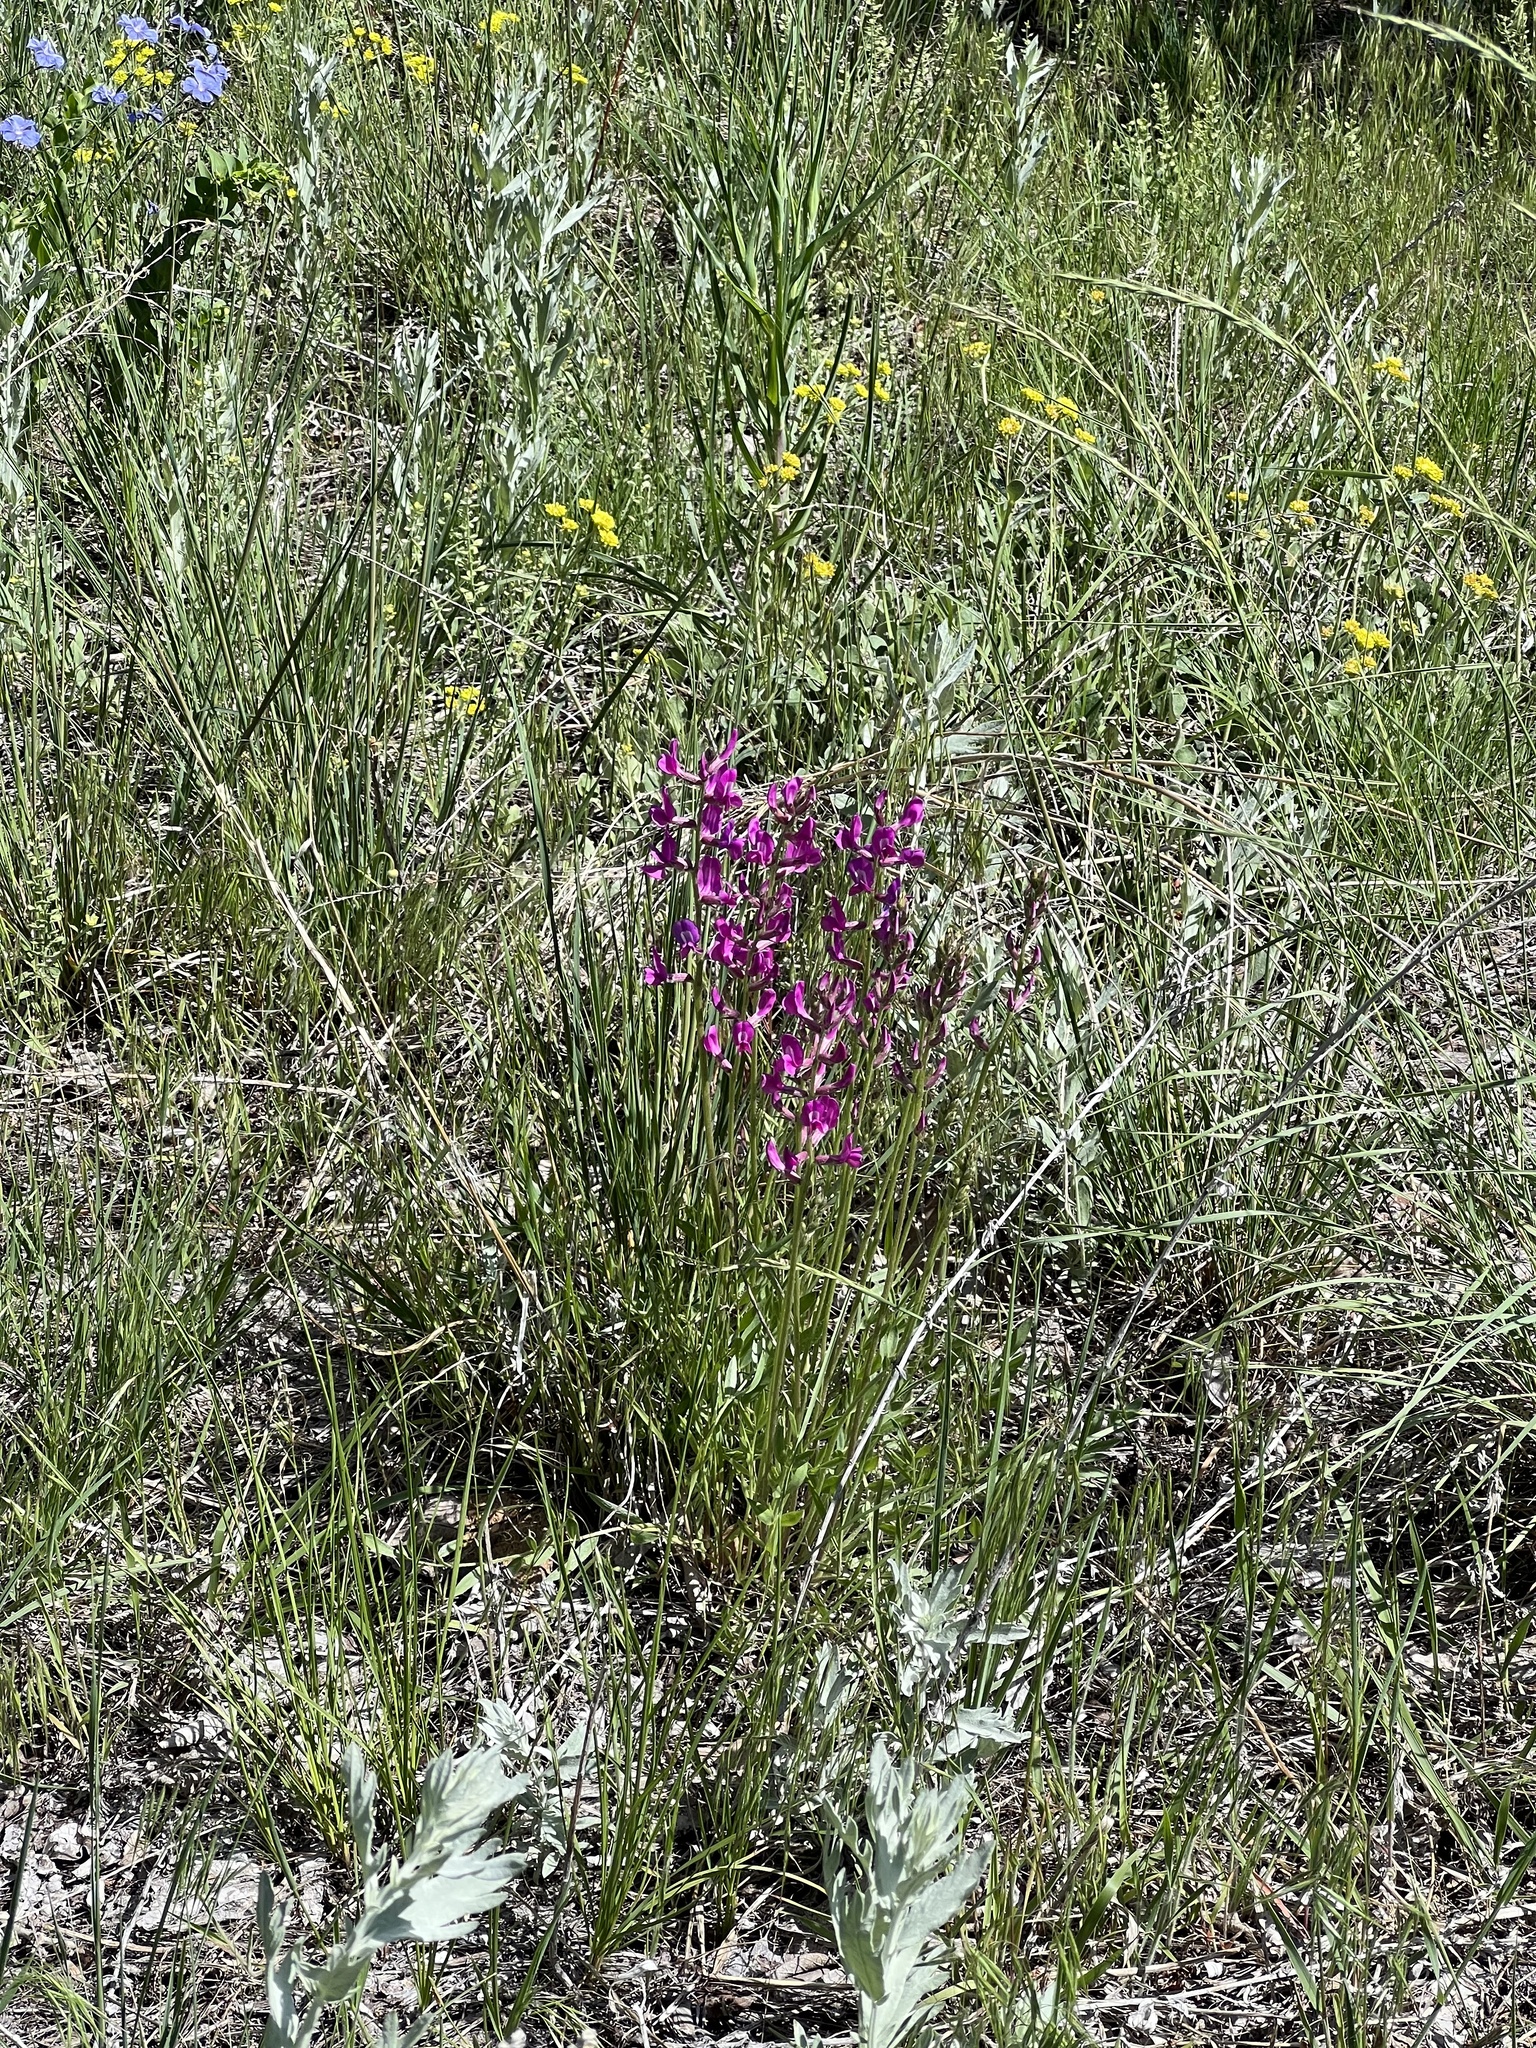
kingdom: Plantae
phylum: Tracheophyta
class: Magnoliopsida
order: Fabales
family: Fabaceae
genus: Oxytropis
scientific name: Oxytropis lambertii
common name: Purple locoweed
